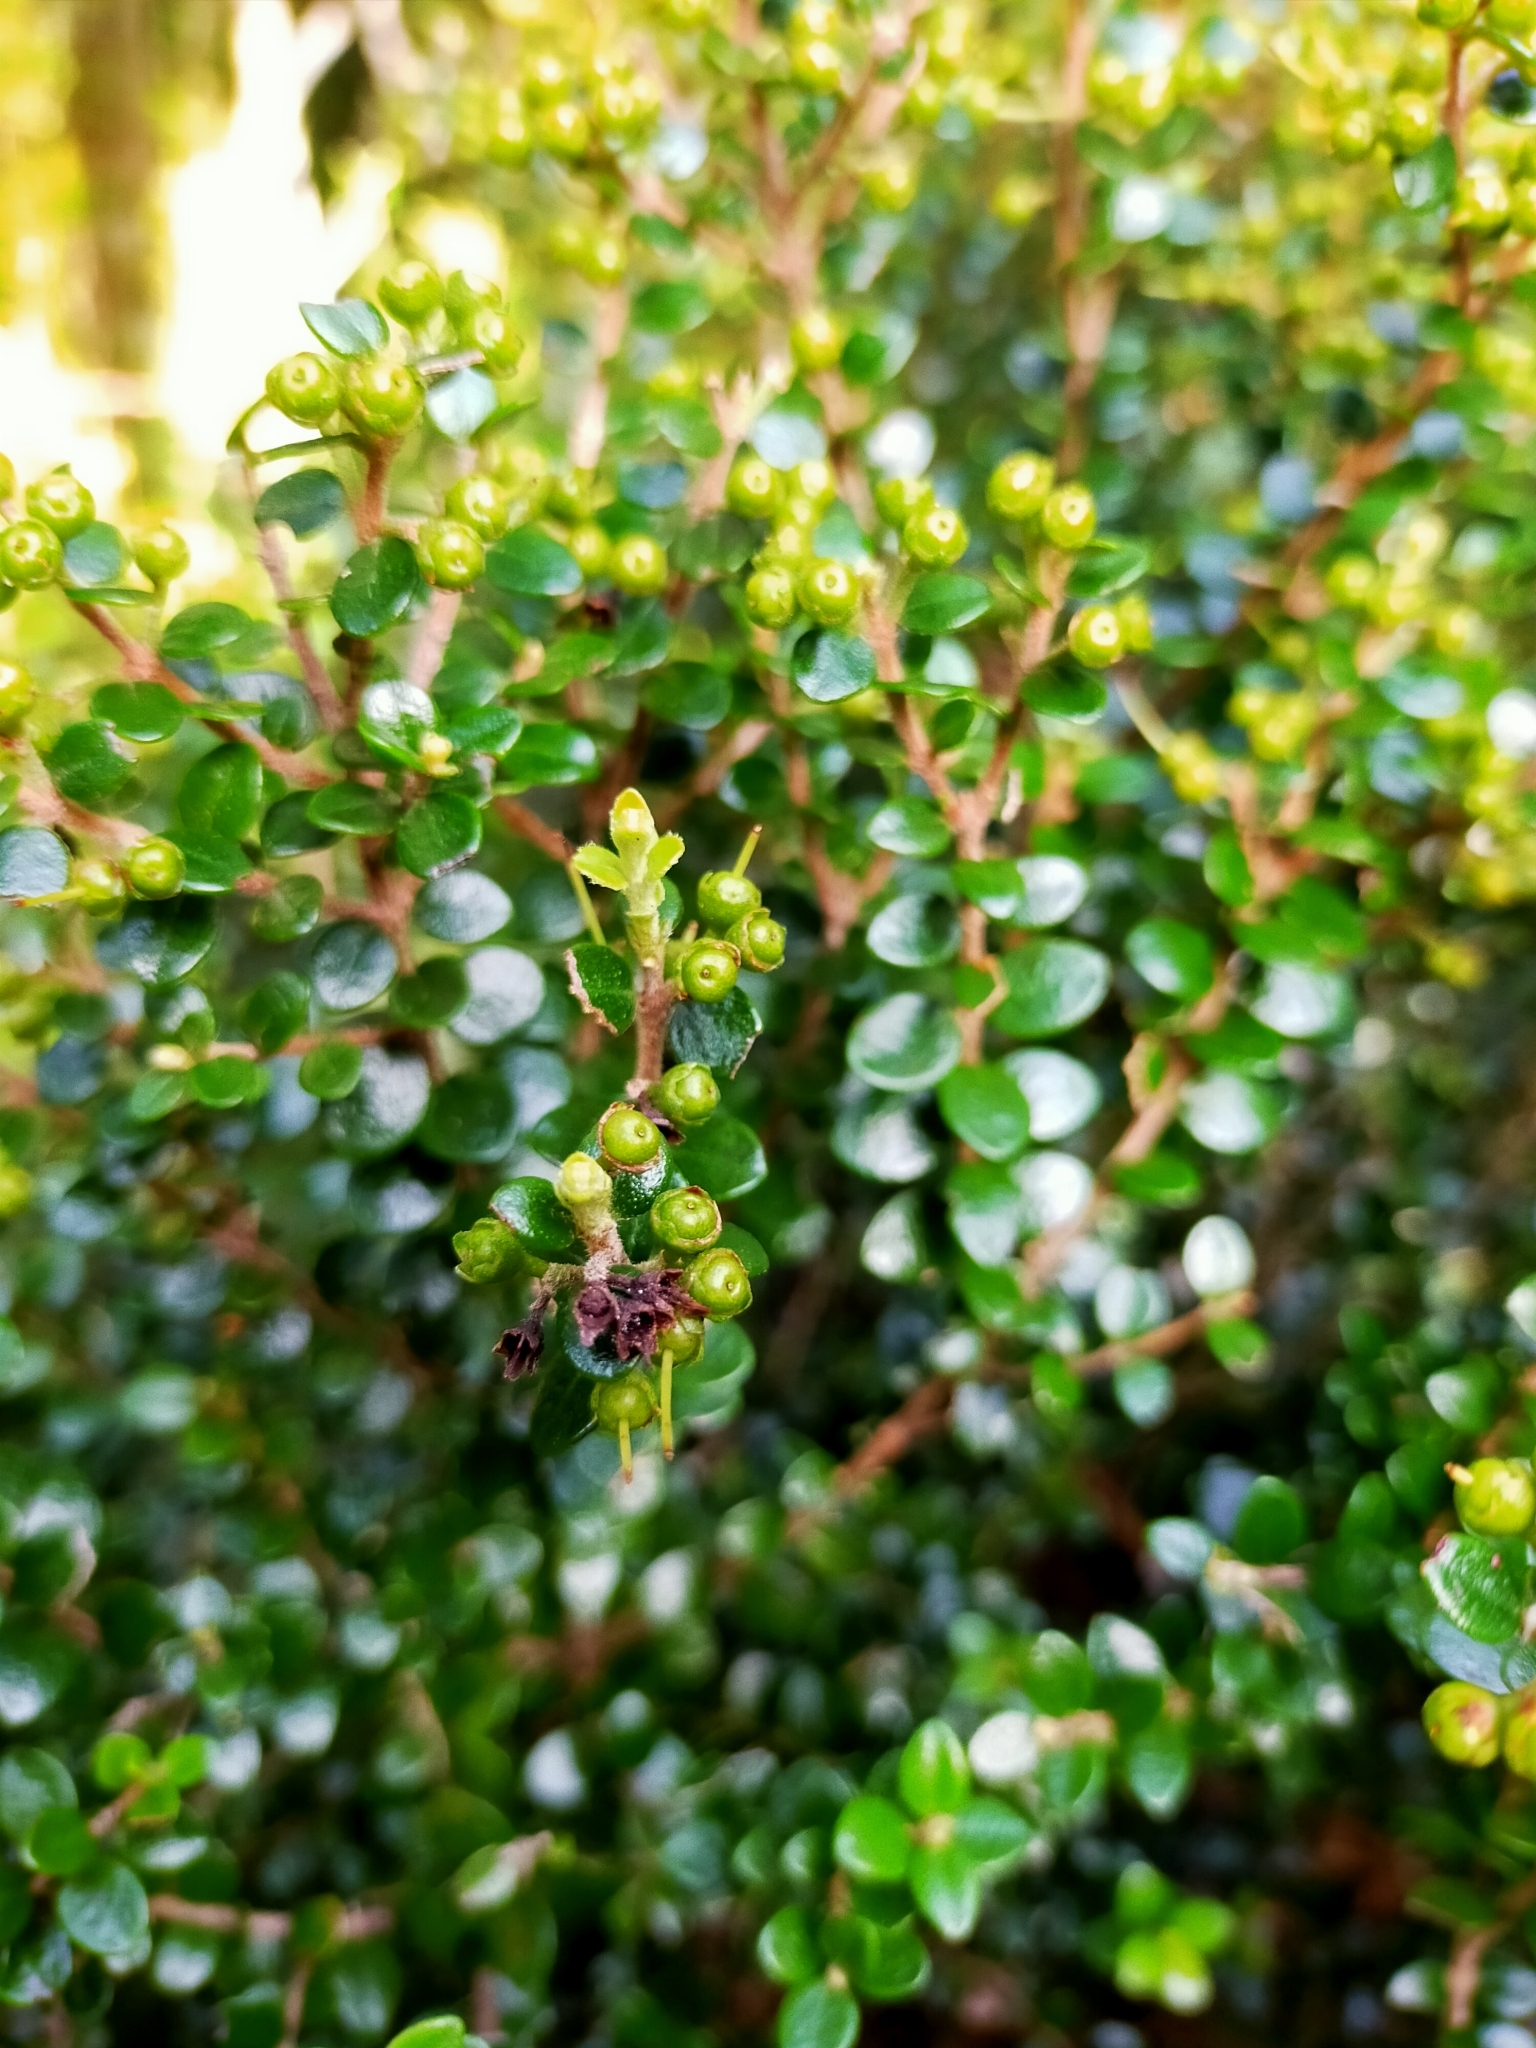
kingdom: Plantae
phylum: Tracheophyta
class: Magnoliopsida
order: Myrtales
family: Myrtaceae
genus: Metrosideros
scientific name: Metrosideros perforata
